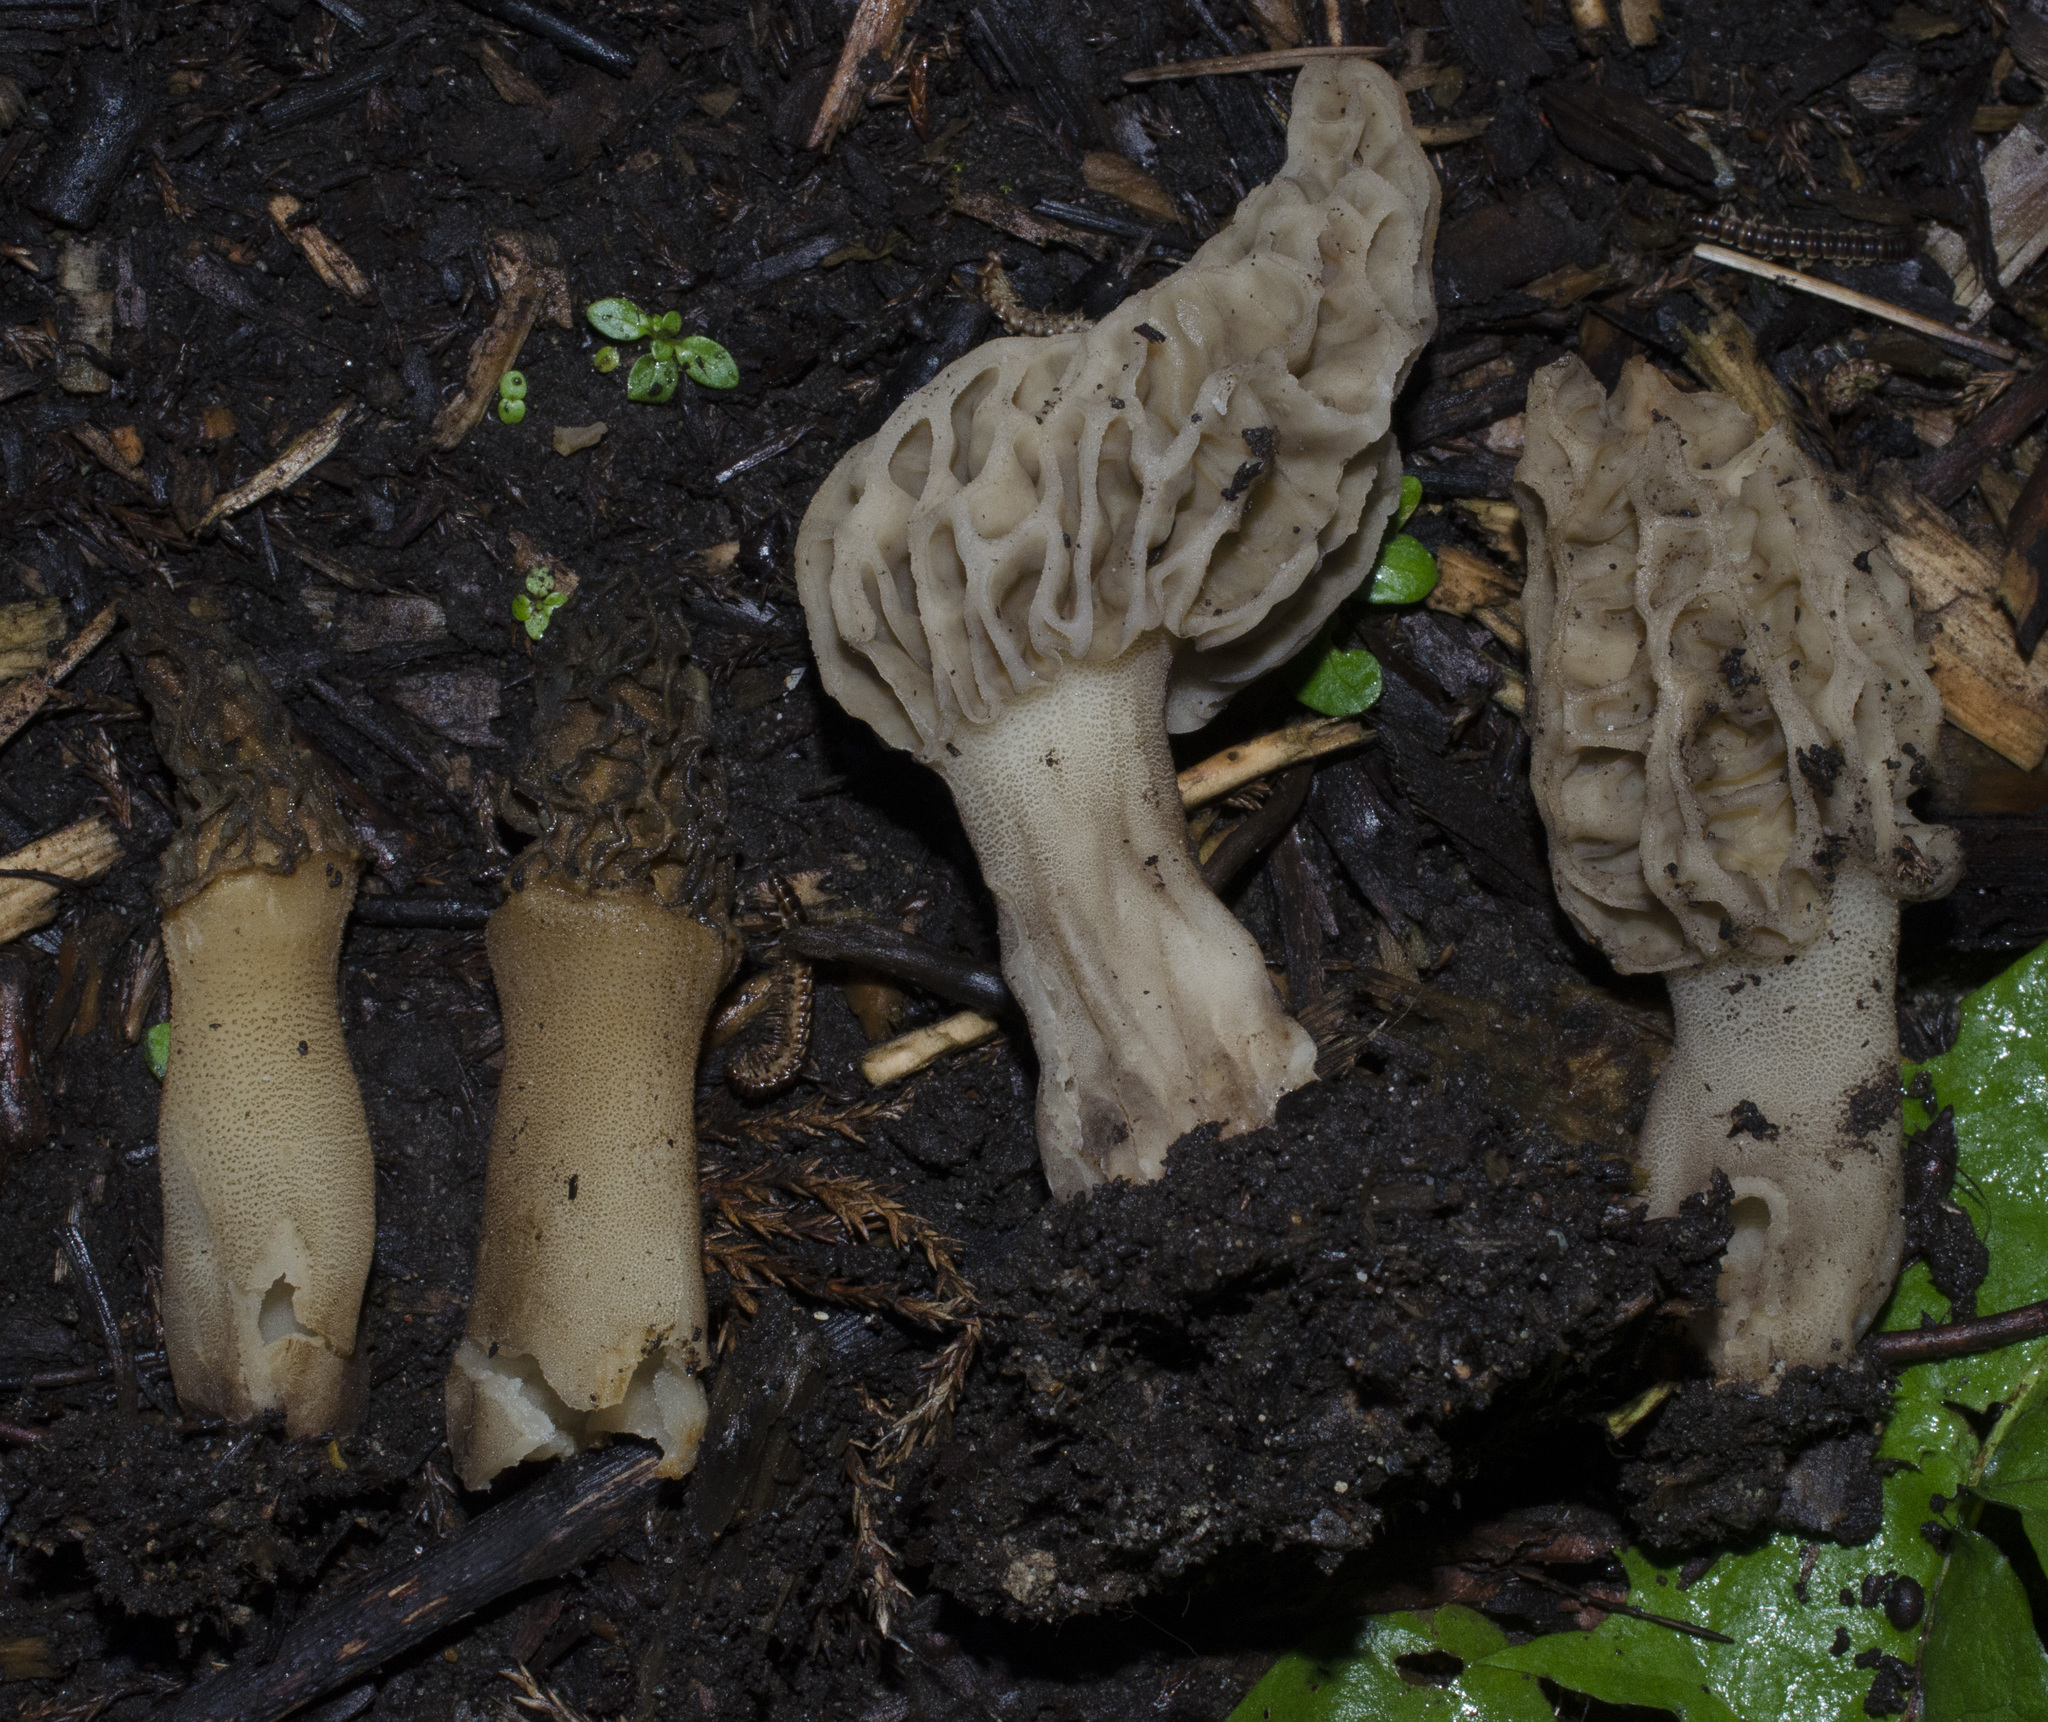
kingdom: Fungi
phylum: Ascomycota
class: Pezizomycetes
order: Pezizales
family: Morchellaceae
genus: Morchella
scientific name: Morchella rufobrunnea
